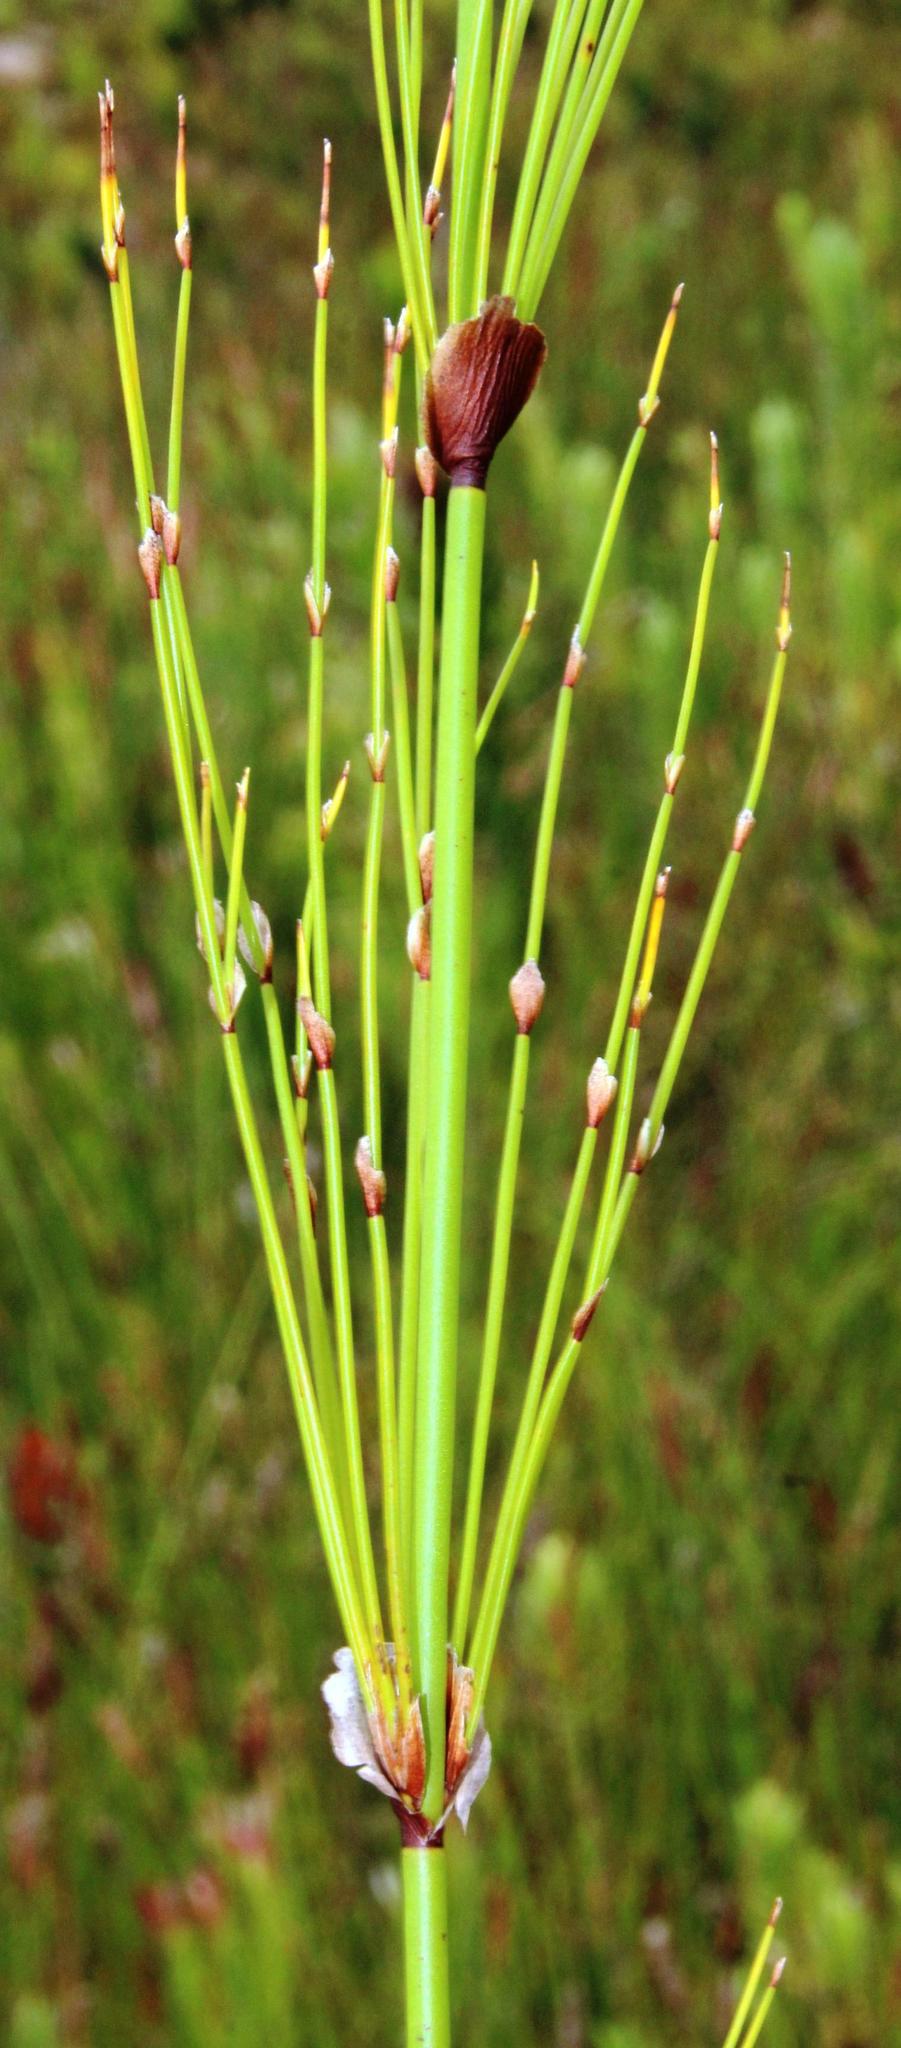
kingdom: Plantae
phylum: Tracheophyta
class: Liliopsida
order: Poales
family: Restionaceae
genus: Elegia
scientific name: Elegia capensis
